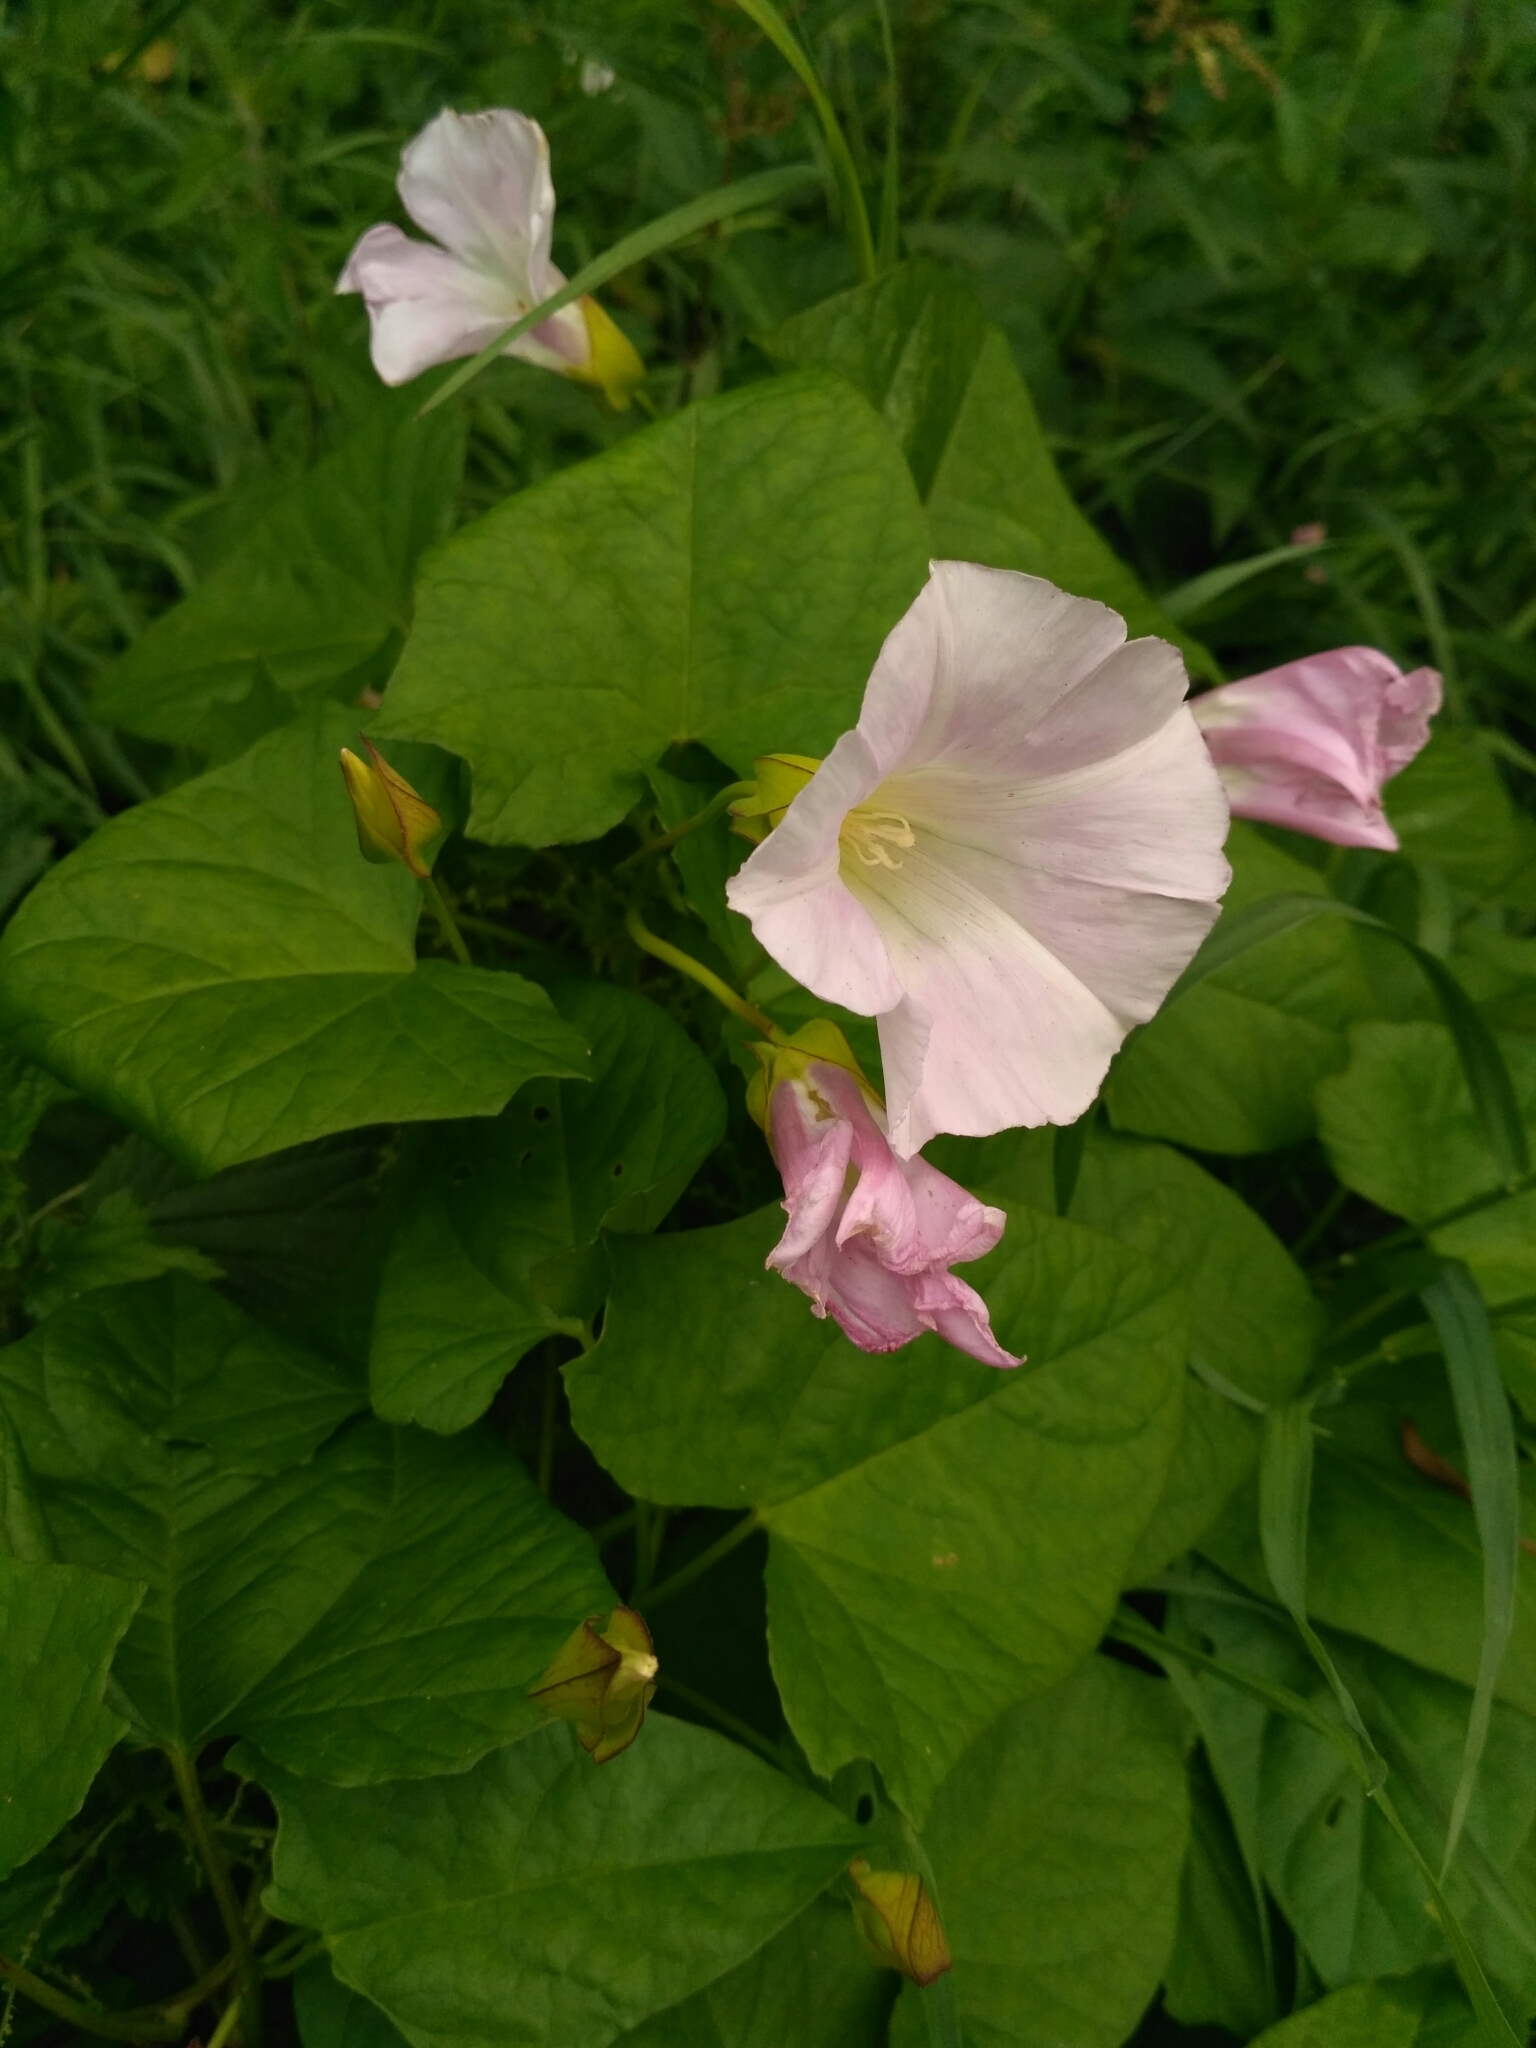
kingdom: Plantae
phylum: Tracheophyta
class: Magnoliopsida
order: Solanales
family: Convolvulaceae
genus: Calystegia
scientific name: Calystegia sepium
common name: Hedge bindweed
